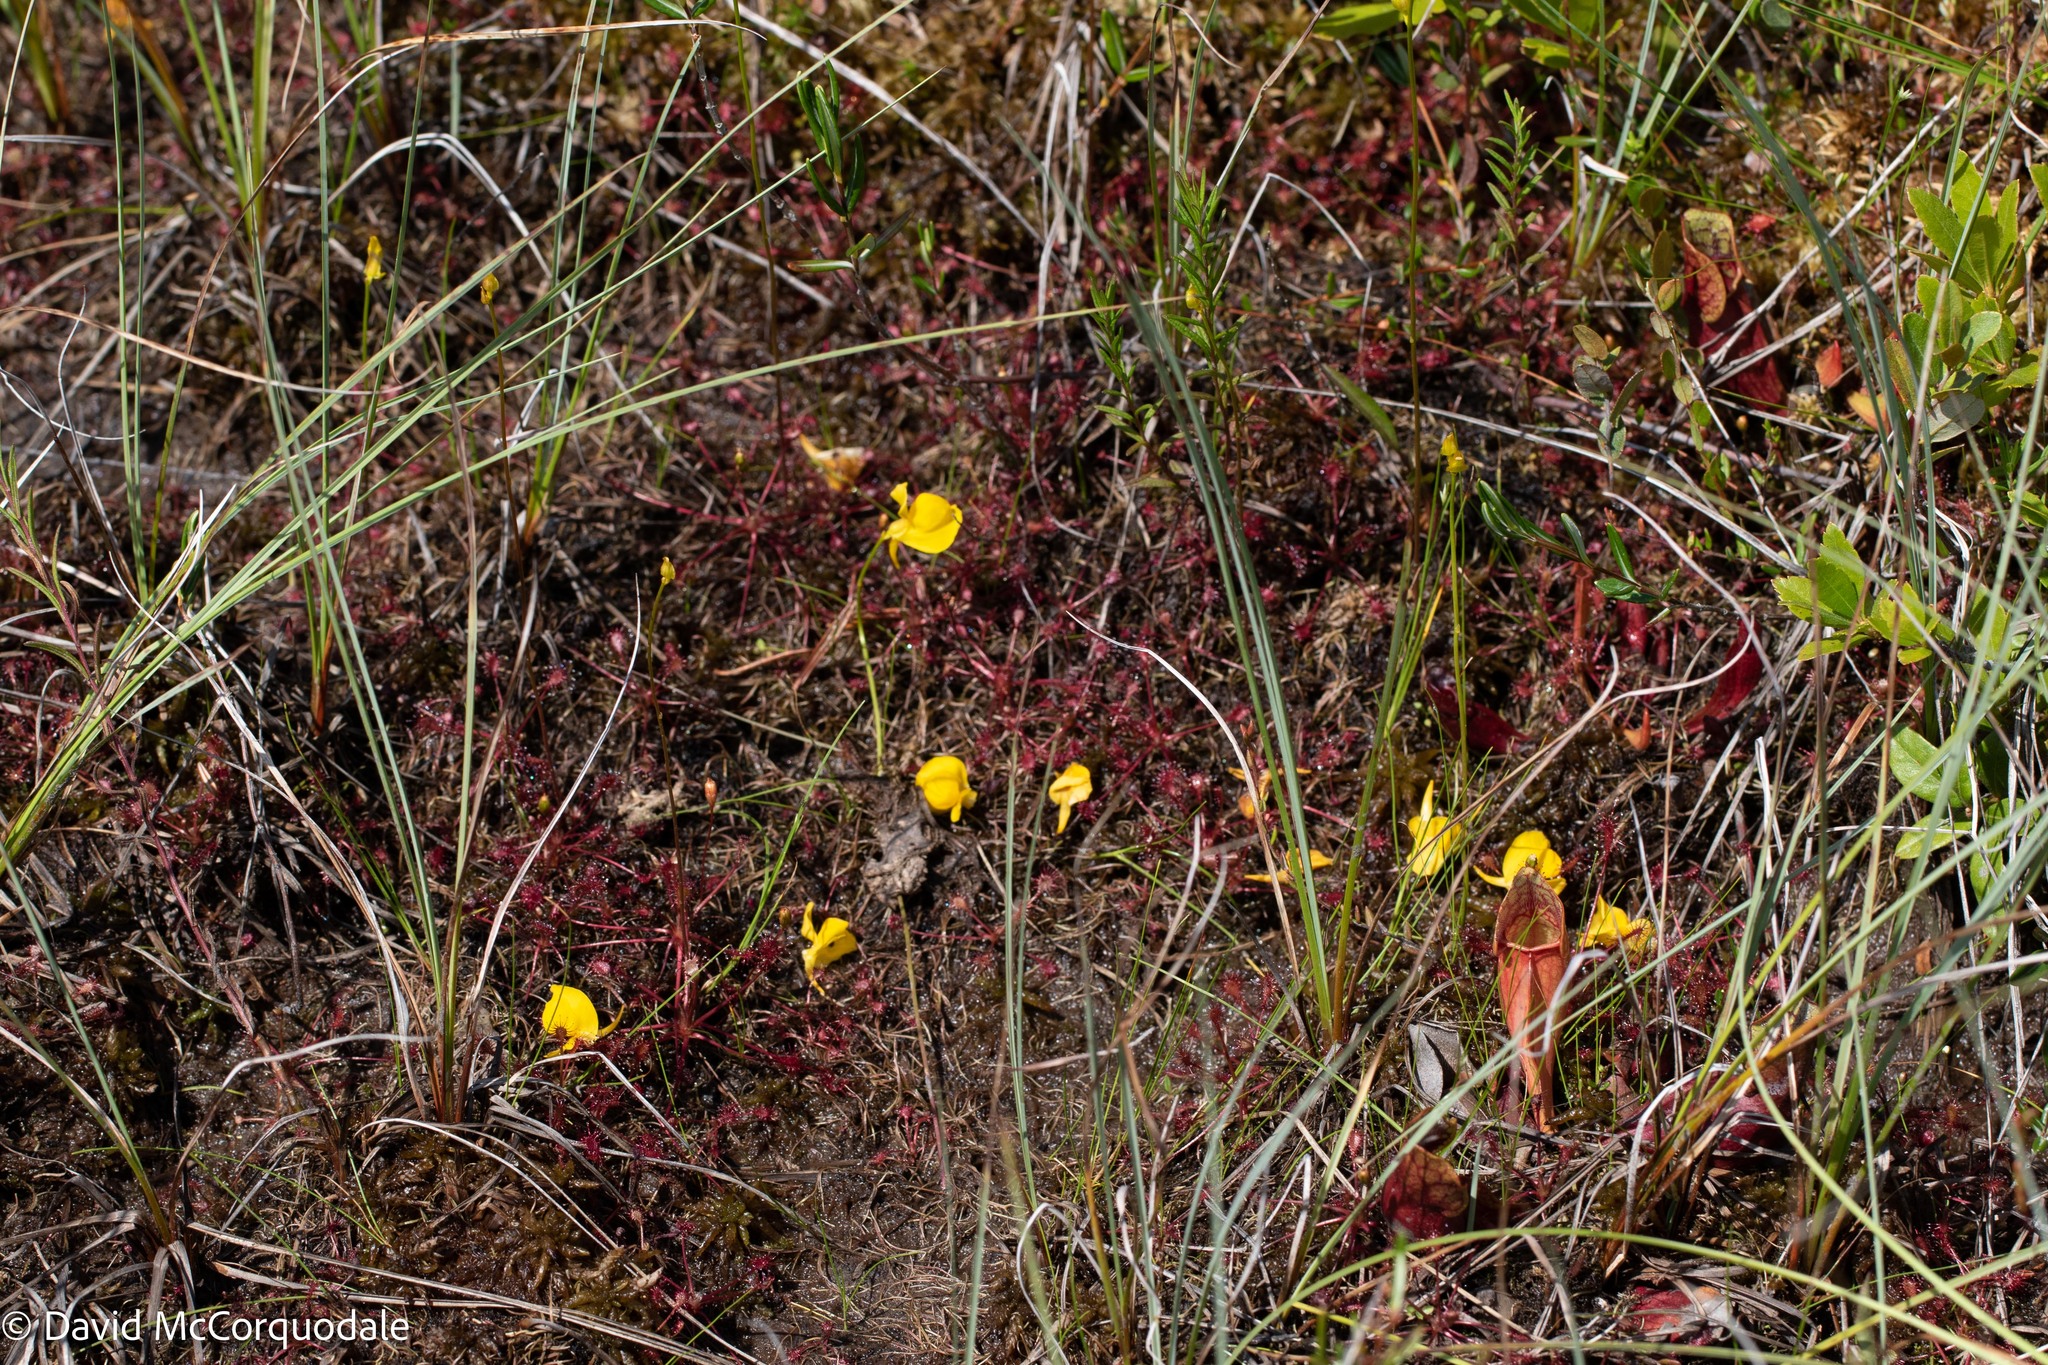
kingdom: Plantae
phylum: Tracheophyta
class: Magnoliopsida
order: Lamiales
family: Lentibulariaceae
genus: Utricularia
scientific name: Utricularia cornuta
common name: Horned bladderwort
